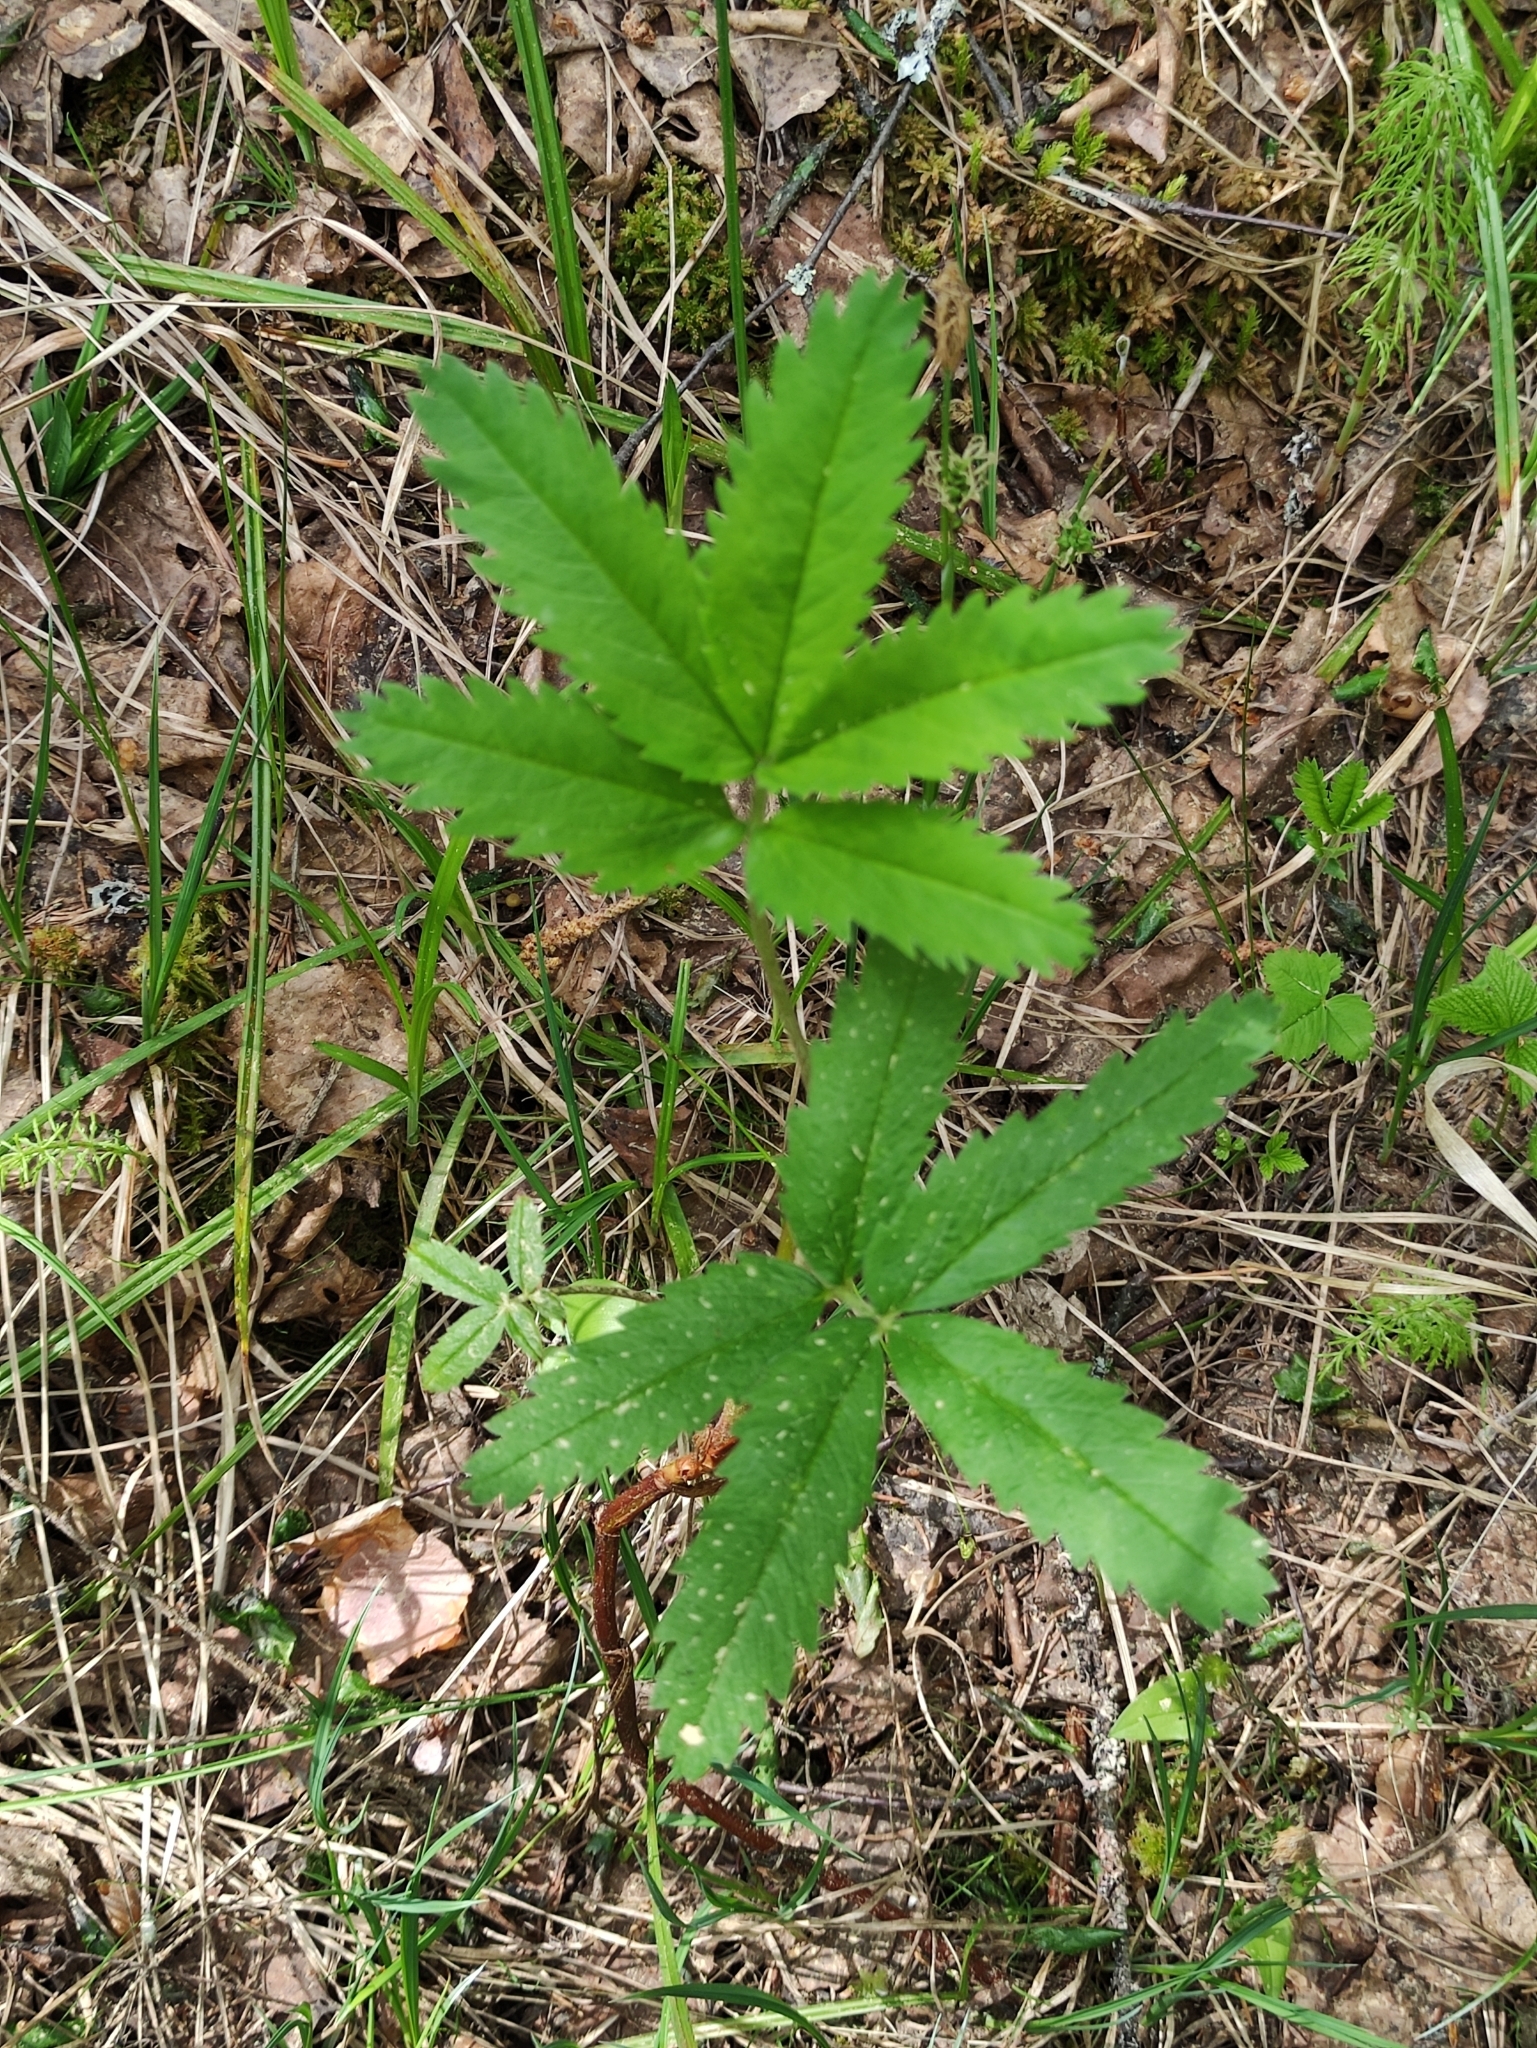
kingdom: Plantae
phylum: Tracheophyta
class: Magnoliopsida
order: Rosales
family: Rosaceae
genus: Comarum
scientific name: Comarum palustre
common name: Marsh cinquefoil
